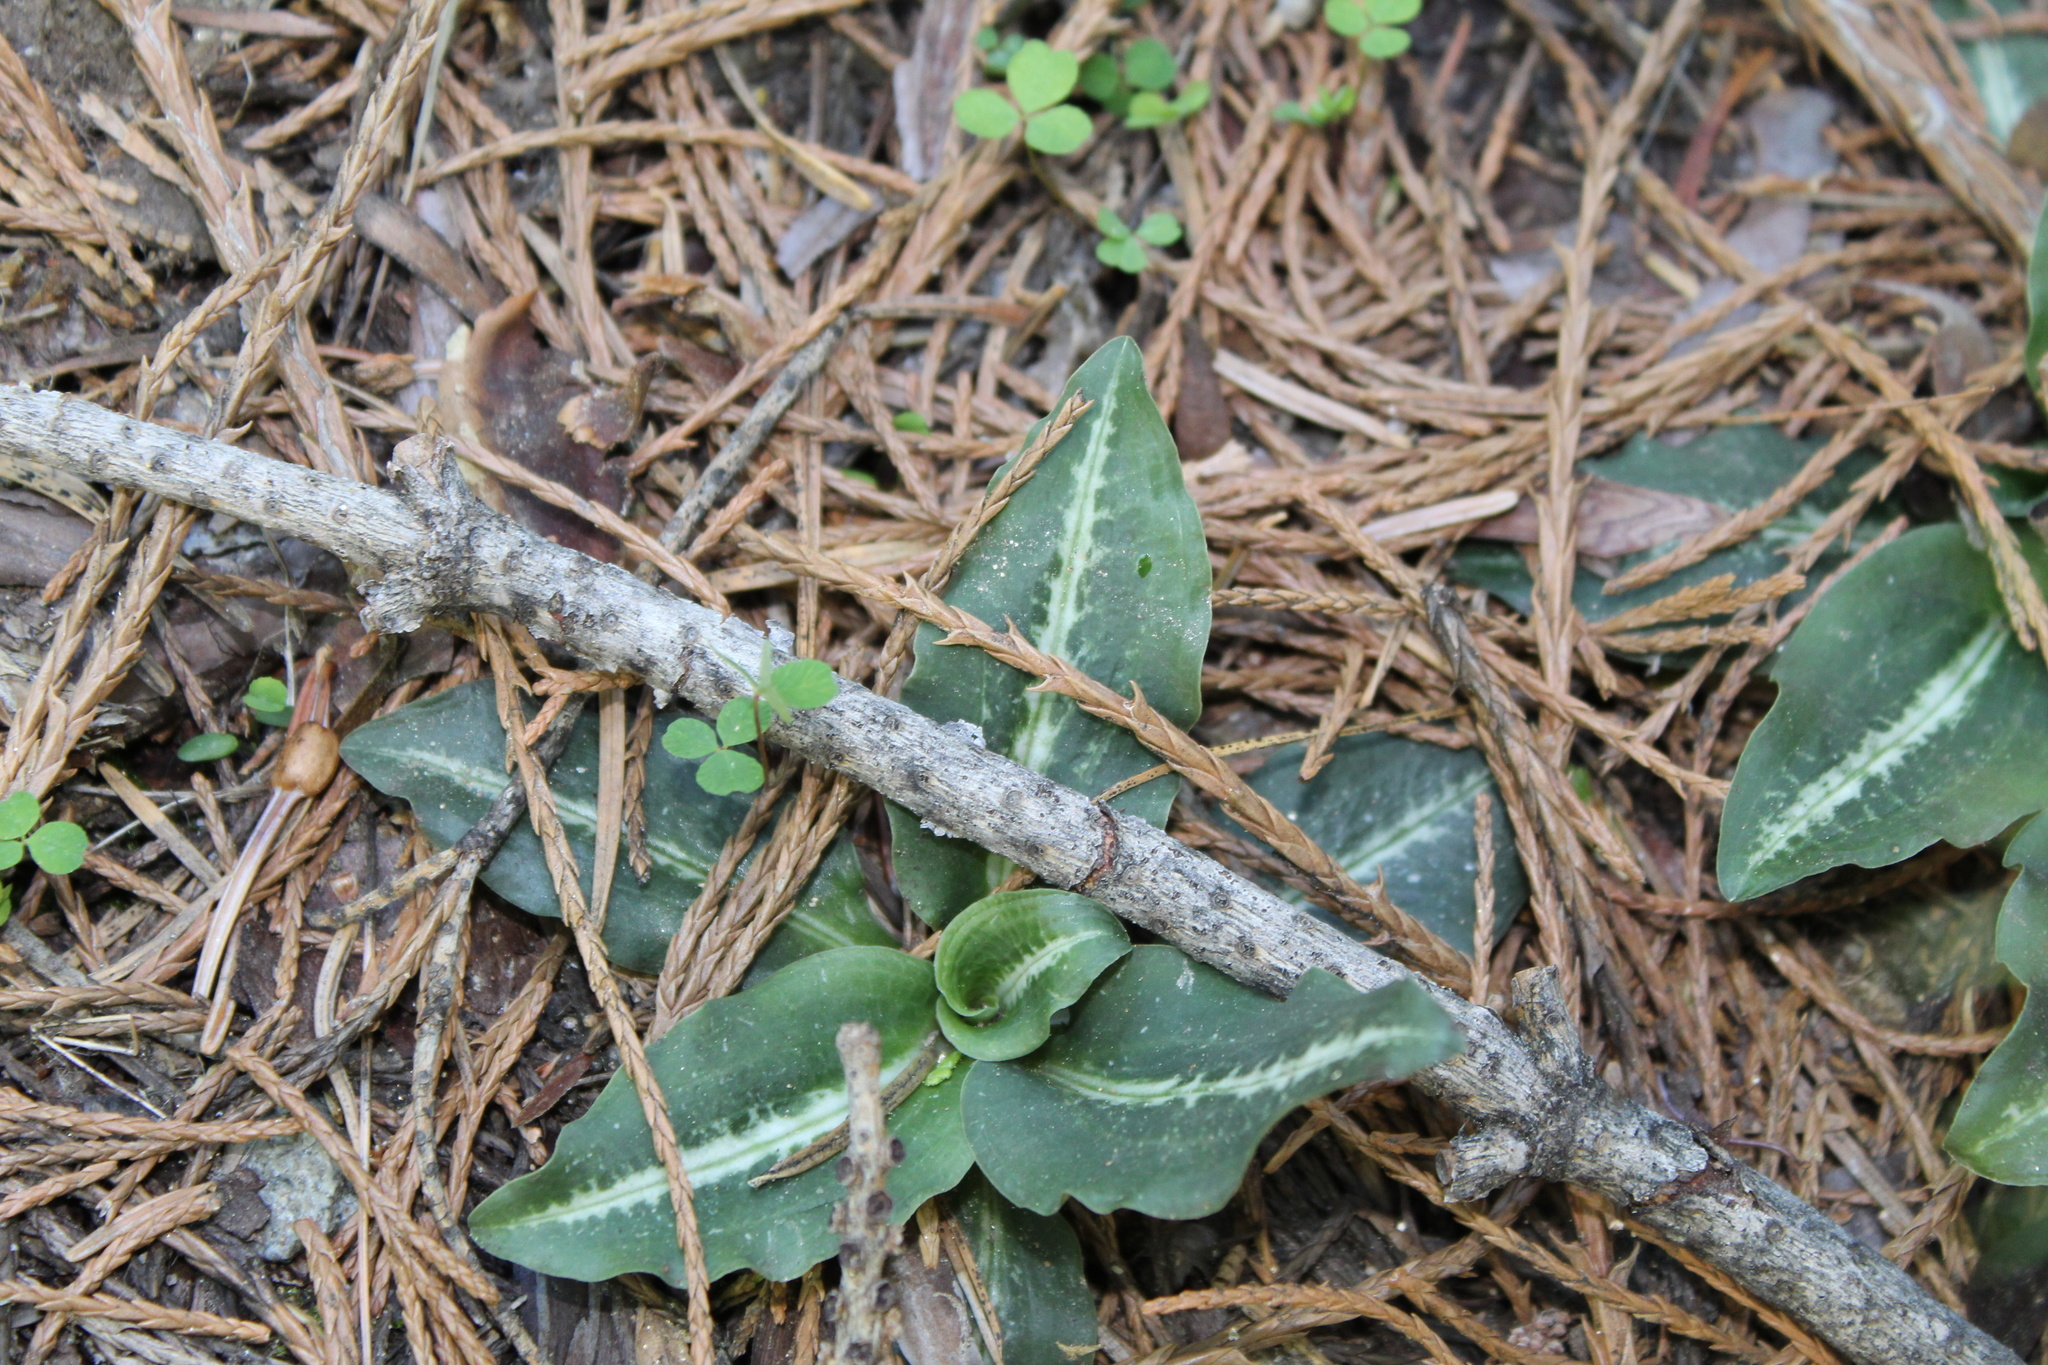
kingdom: Plantae
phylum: Tracheophyta
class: Liliopsida
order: Asparagales
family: Orchidaceae
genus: Goodyera
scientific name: Goodyera oblongifolia
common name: Giant rattlesnake-plantain
